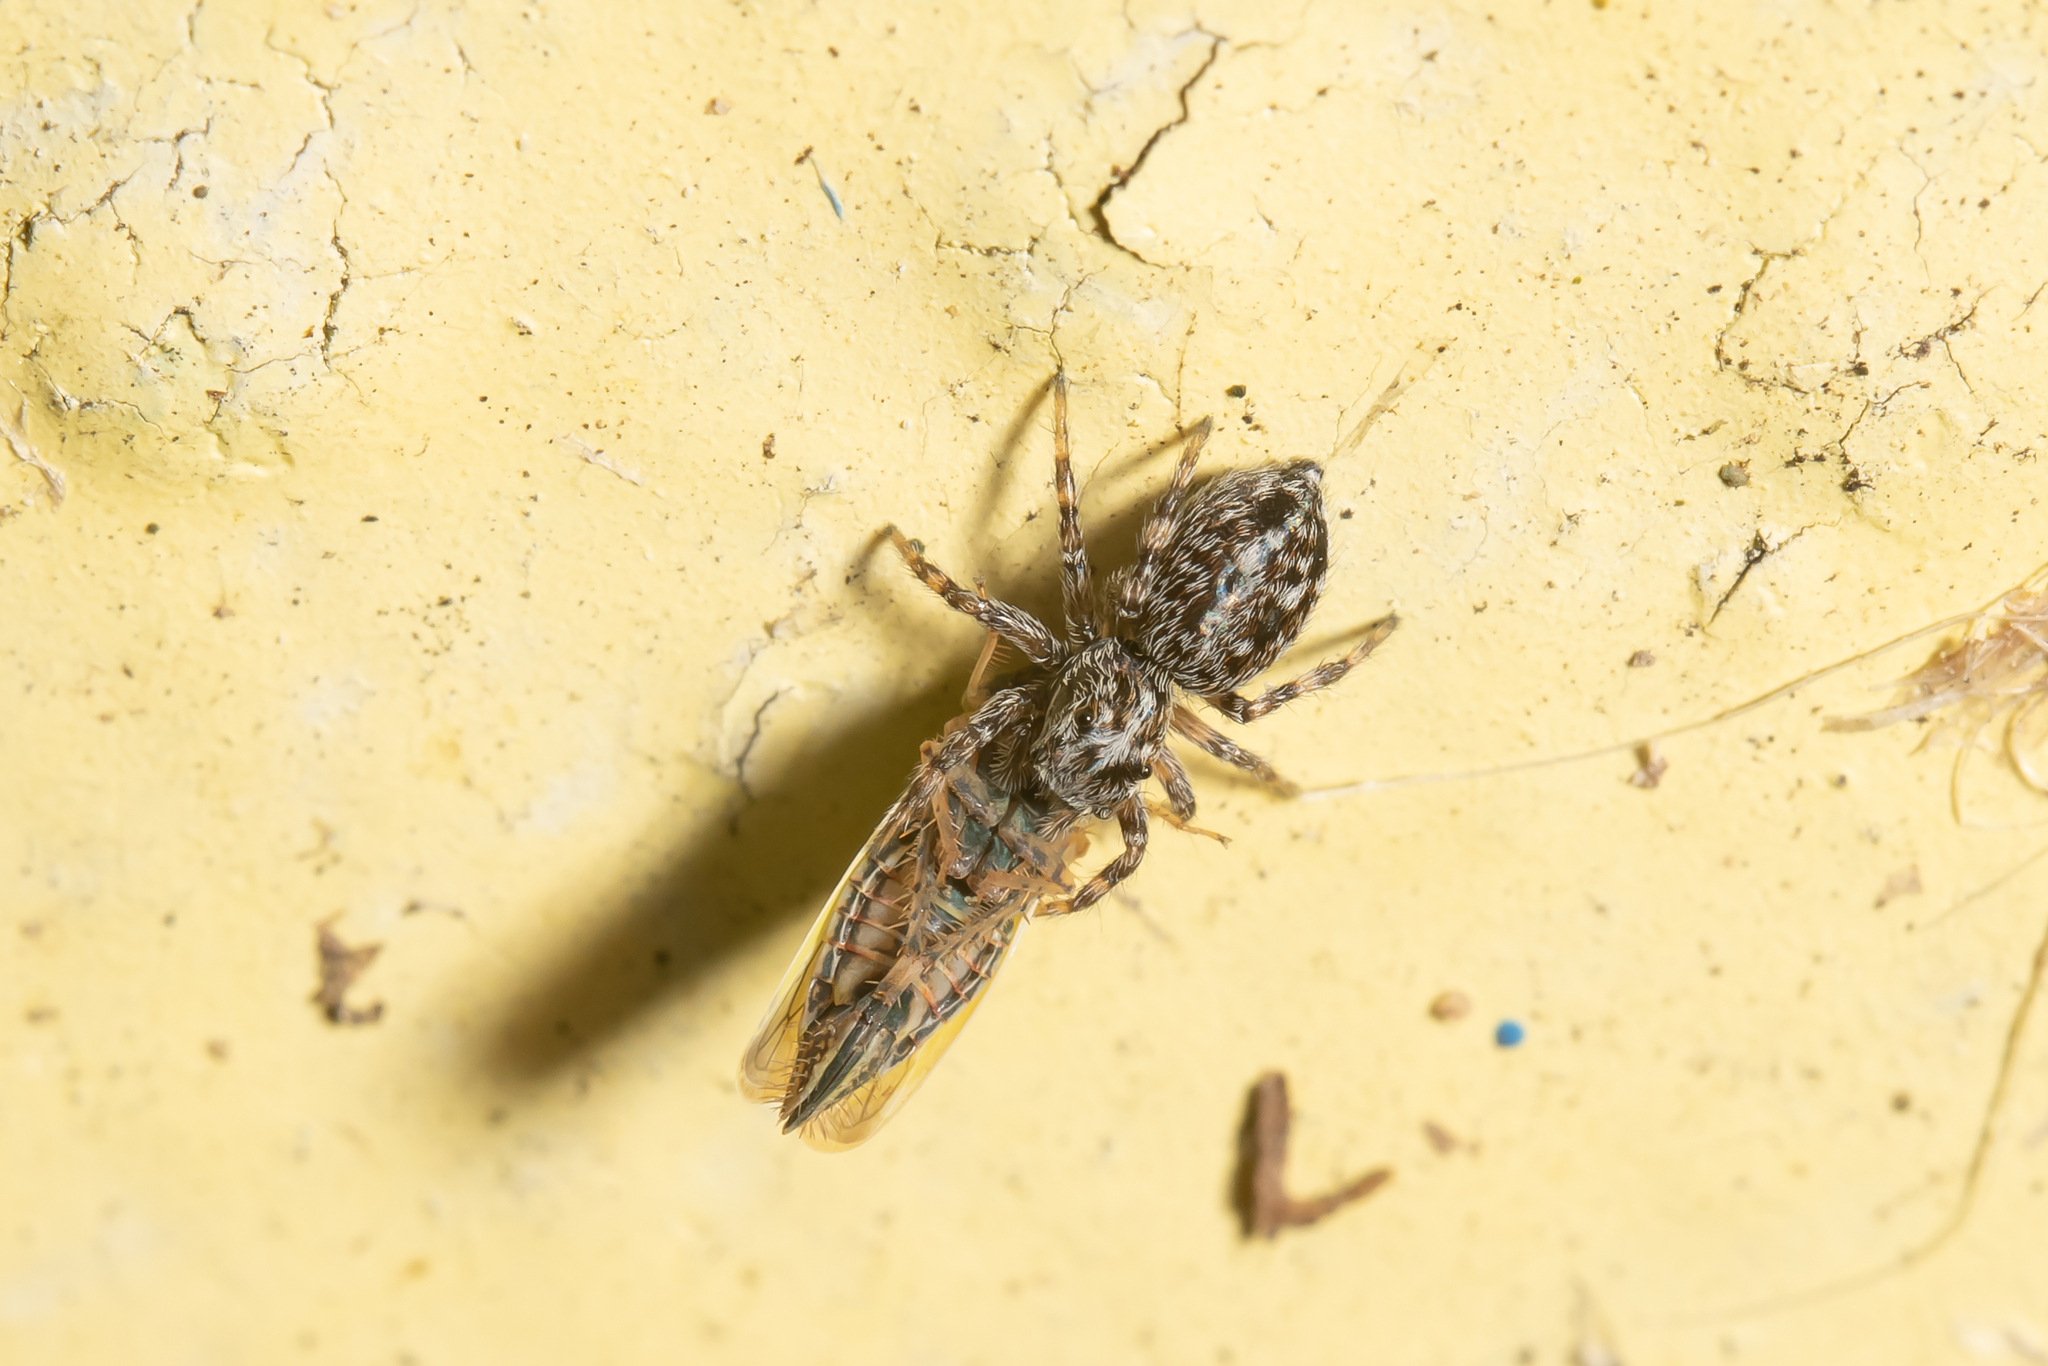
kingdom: Animalia
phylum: Arthropoda
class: Arachnida
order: Araneae
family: Salticidae
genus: Attulus
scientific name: Attulus terebratus
